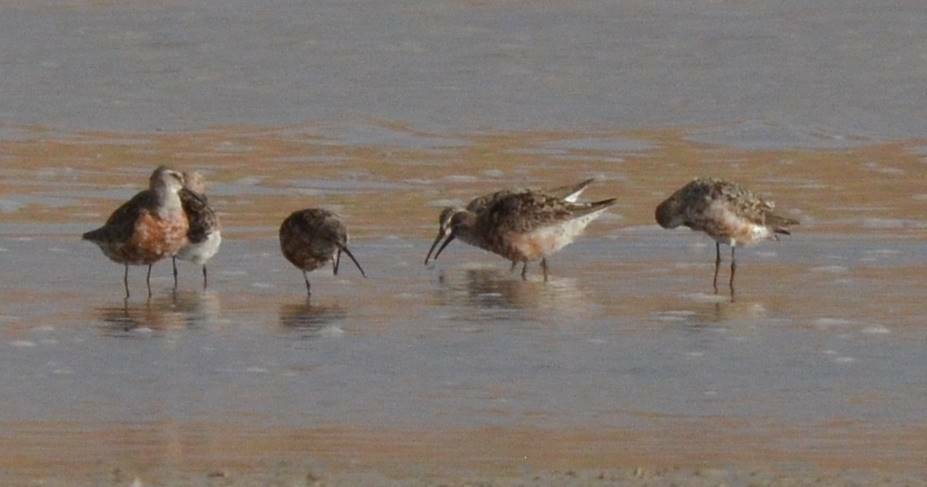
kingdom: Animalia
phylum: Chordata
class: Aves
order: Charadriiformes
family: Scolopacidae
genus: Calidris
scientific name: Calidris ferruginea
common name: Curlew sandpiper
